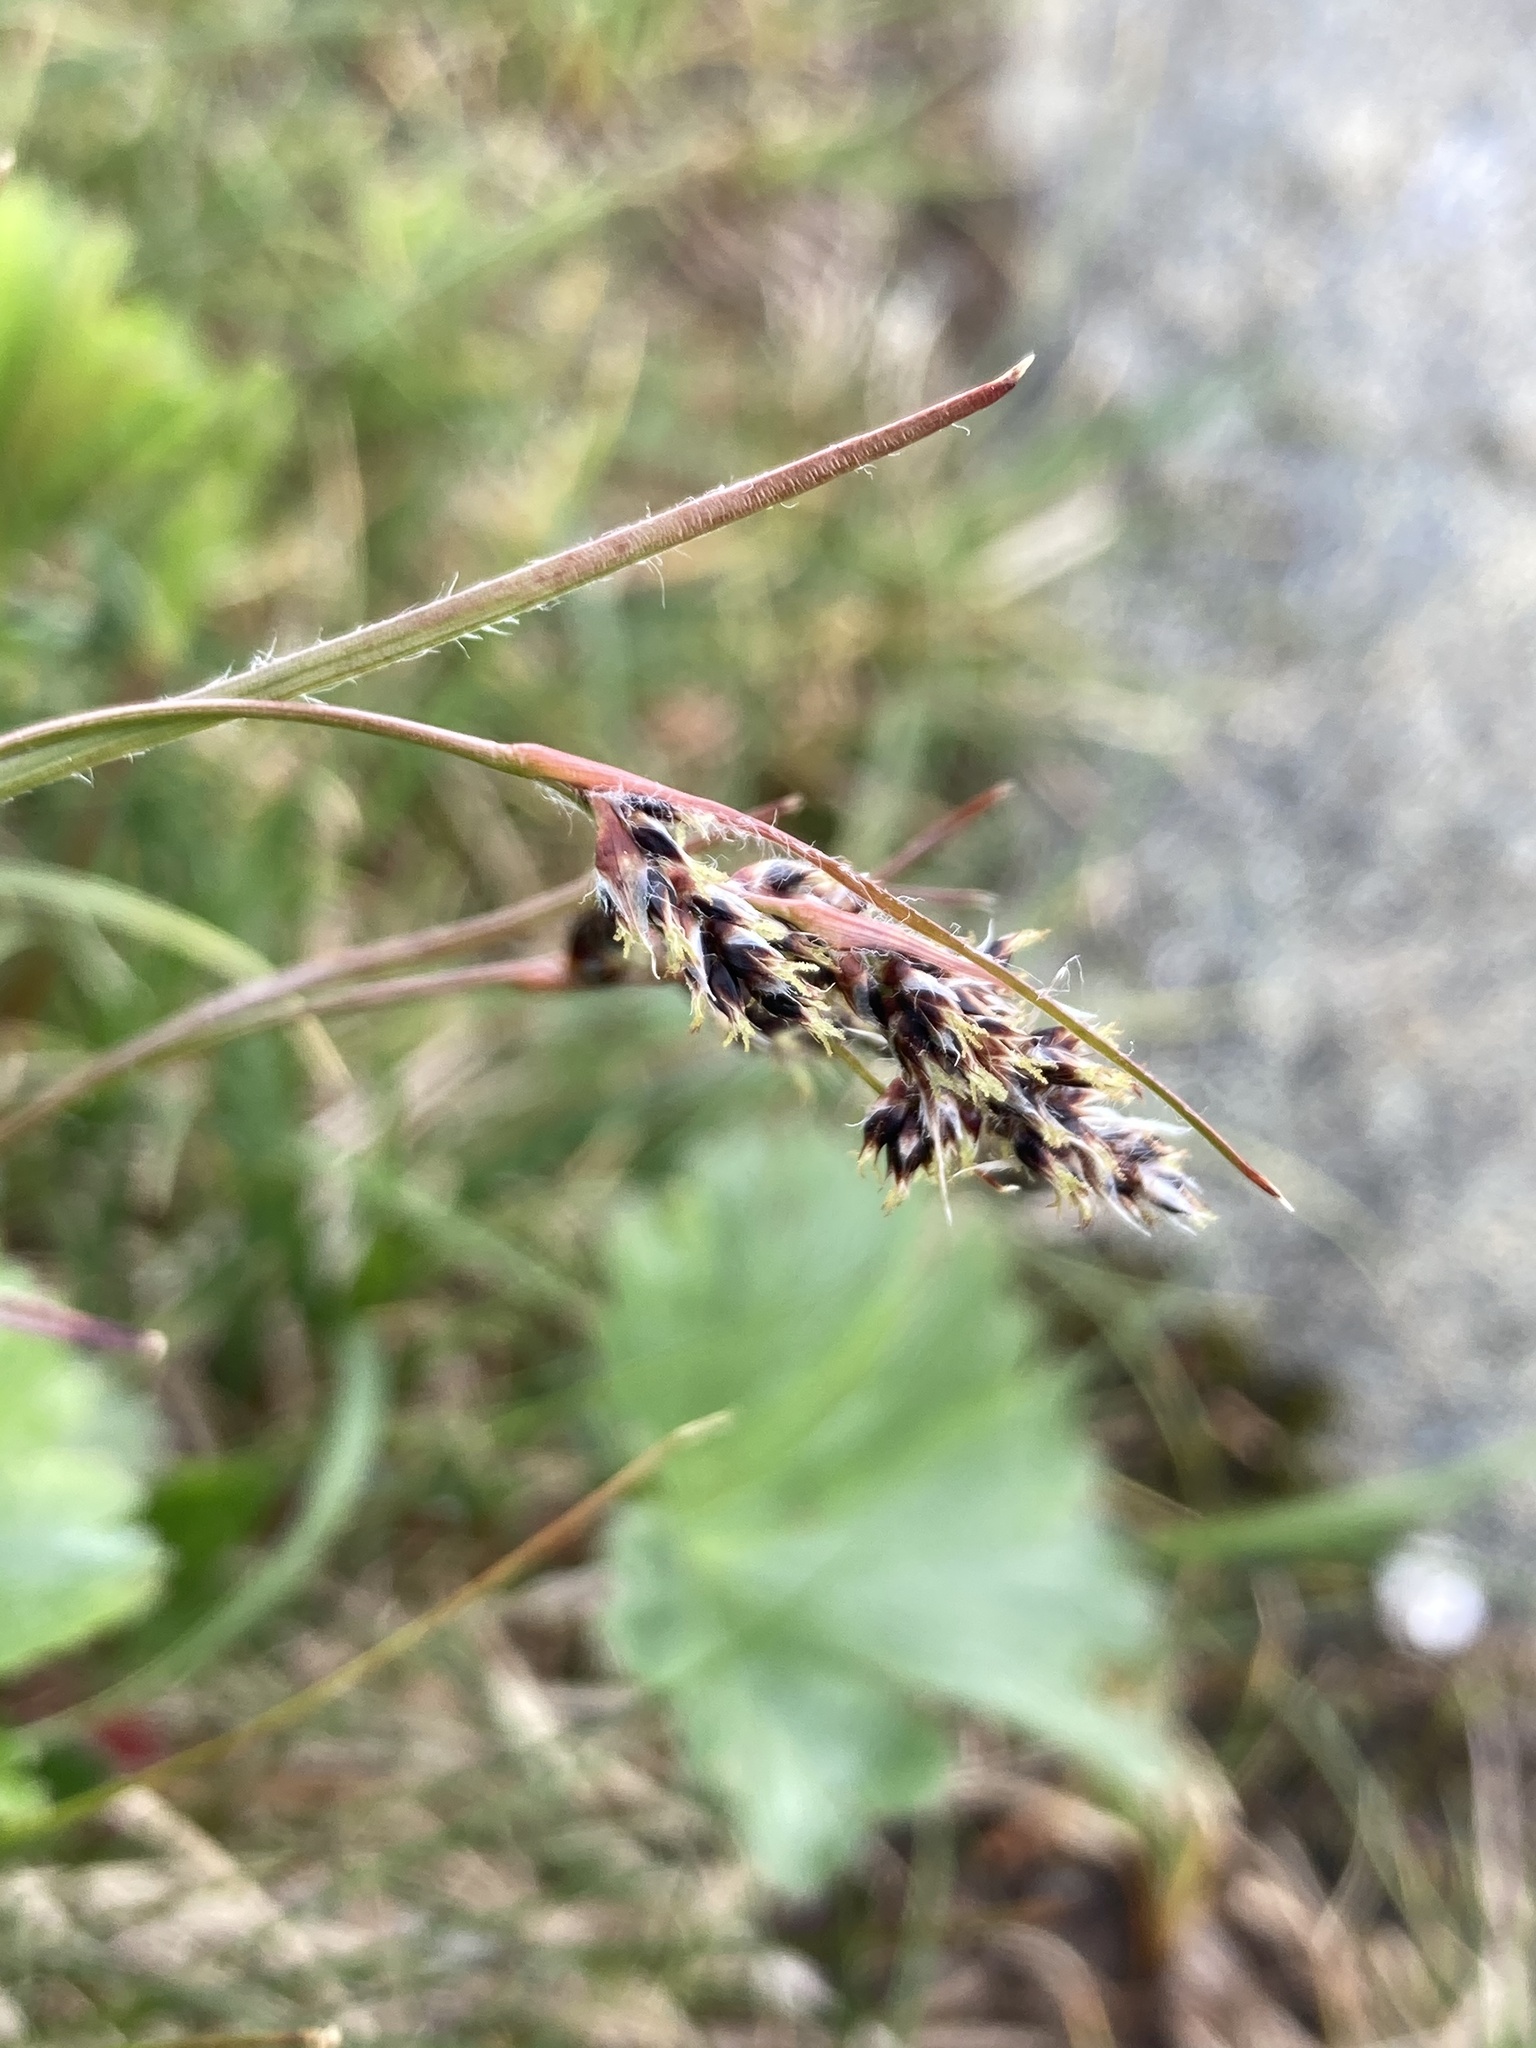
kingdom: Plantae
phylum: Tracheophyta
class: Liliopsida
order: Poales
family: Juncaceae
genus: Luzula
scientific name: Luzula spicata
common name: Spiked wood-rush
